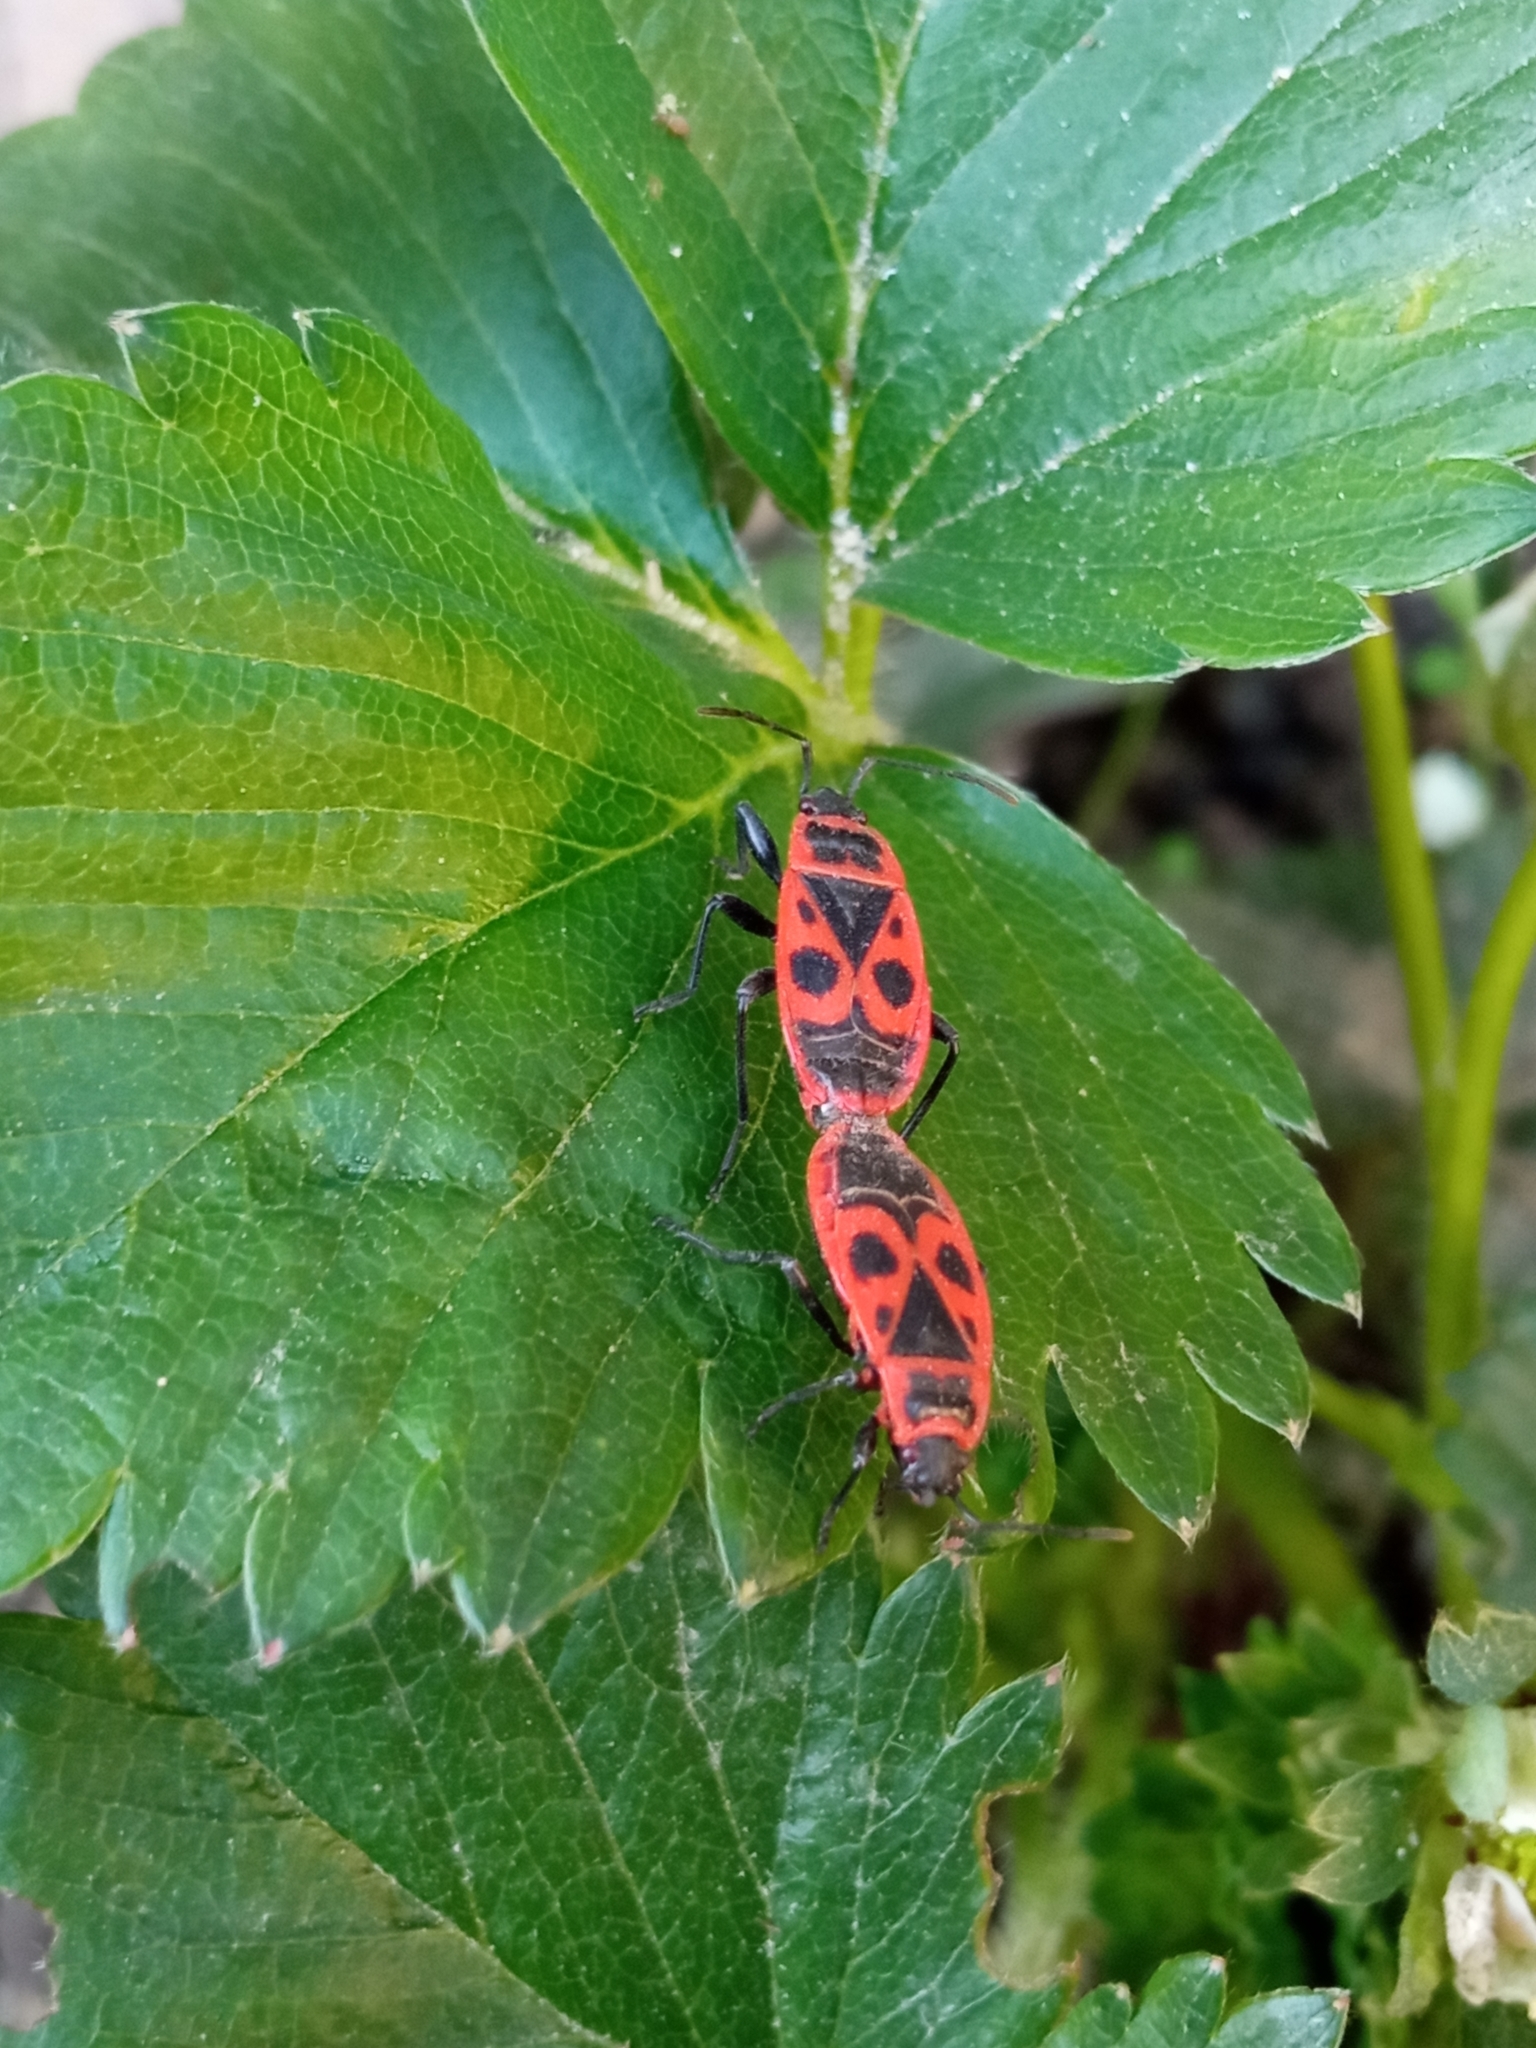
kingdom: Animalia
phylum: Arthropoda
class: Insecta
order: Hemiptera
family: Pyrrhocoridae
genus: Pyrrhocoris
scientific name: Pyrrhocoris apterus
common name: Firebug
